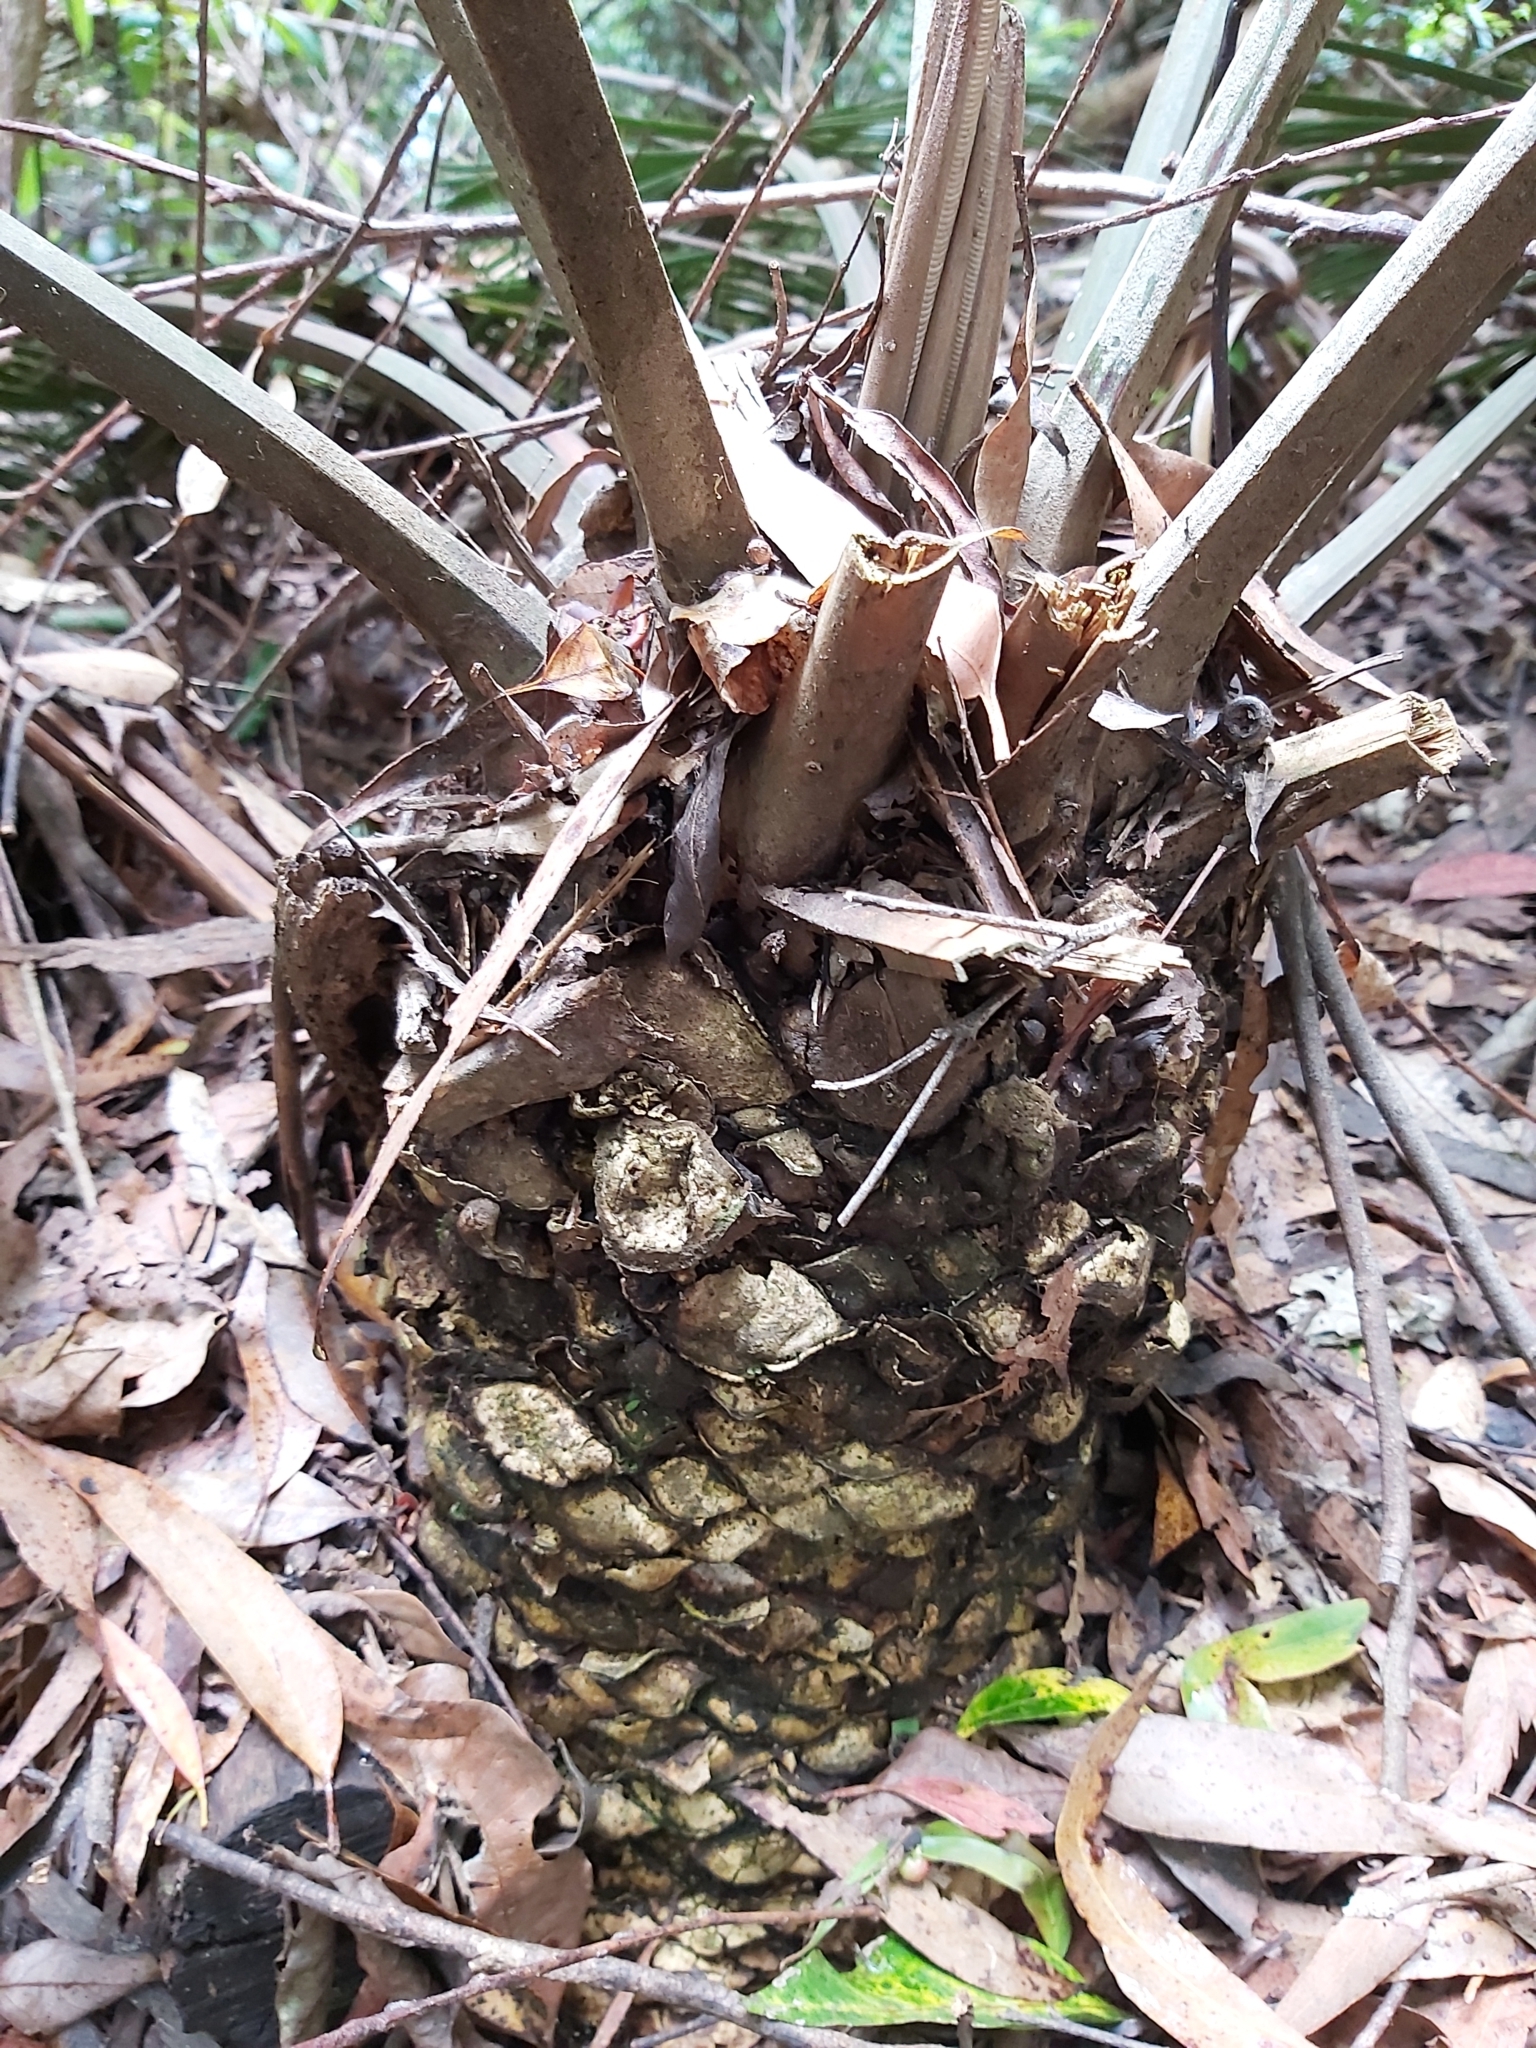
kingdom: Plantae
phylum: Tracheophyta
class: Cycadopsida
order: Cycadales
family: Zamiaceae
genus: Lepidozamia
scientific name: Lepidozamia peroffskyana
